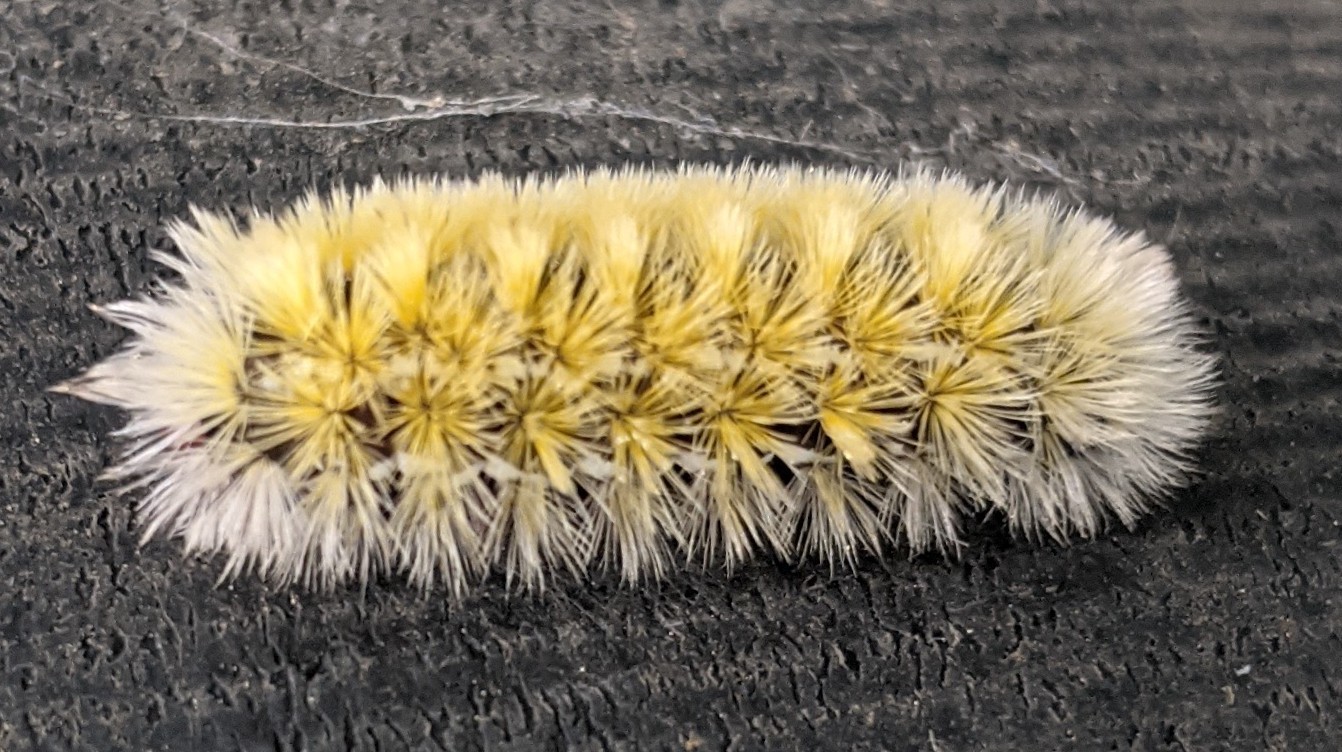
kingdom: Animalia
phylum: Arthropoda
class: Insecta
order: Lepidoptera
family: Erebidae
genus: Ctenucha
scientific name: Ctenucha virginica
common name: Virginia ctenucha moth
